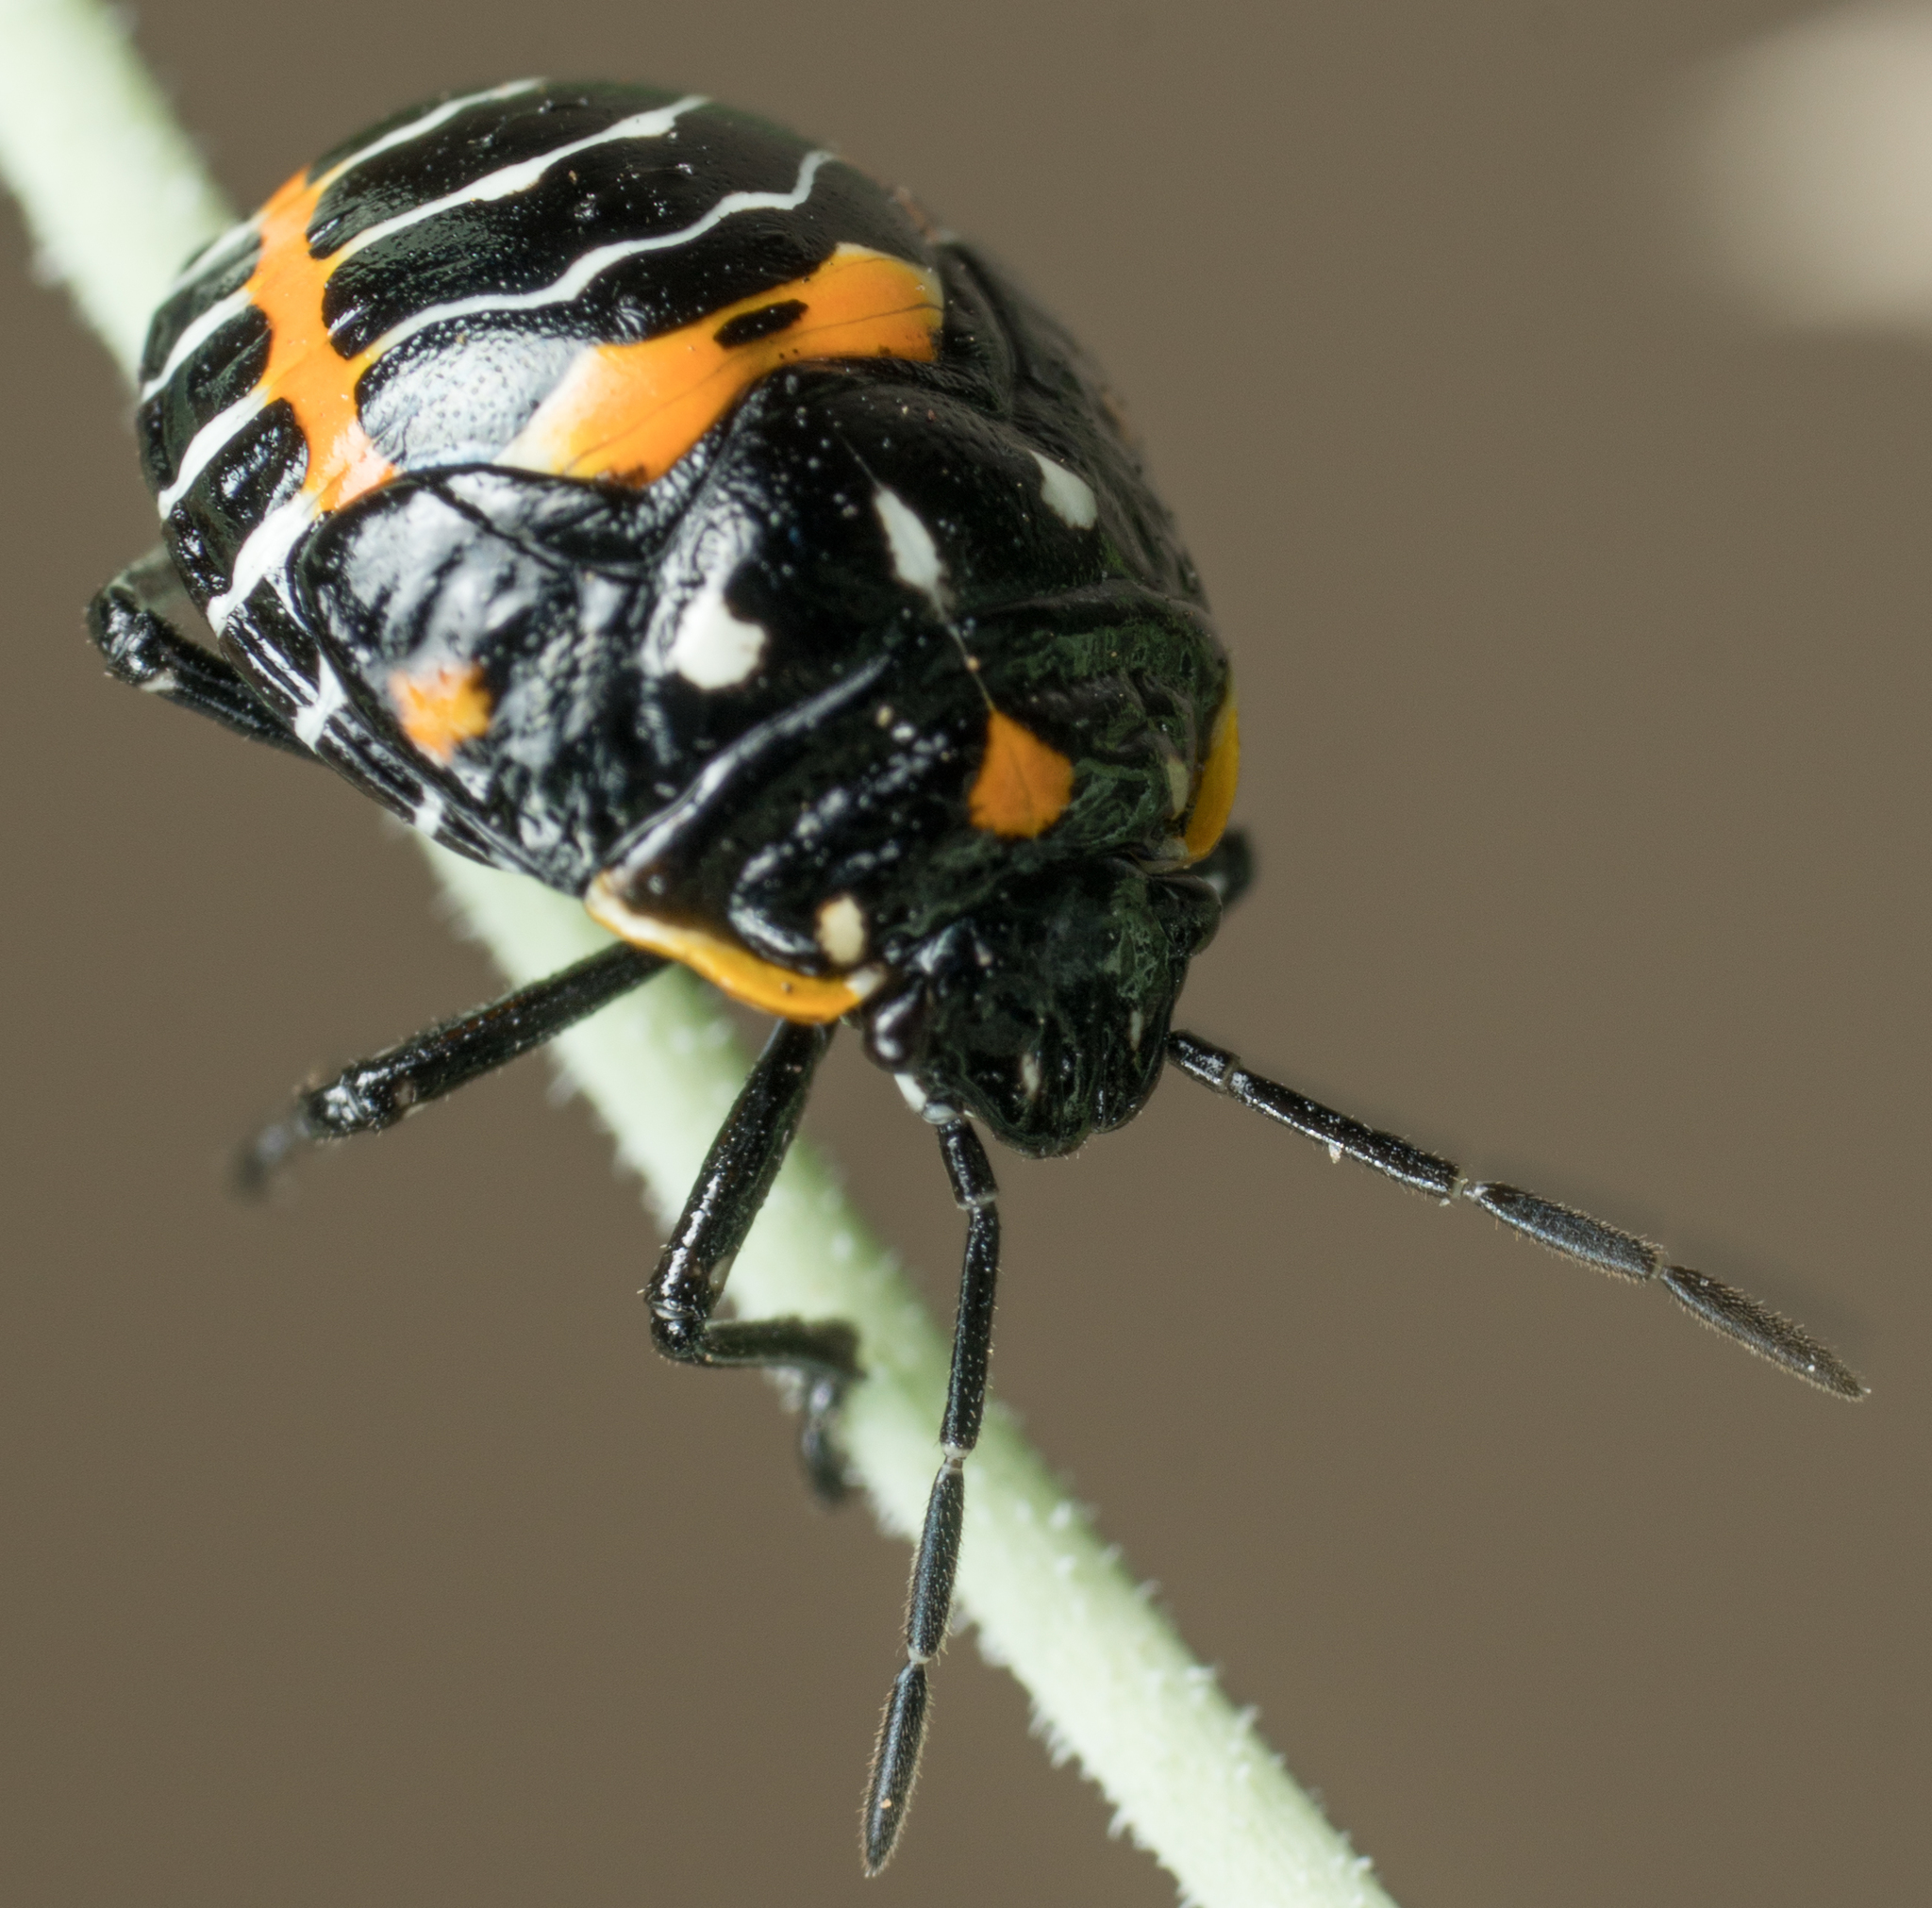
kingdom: Animalia
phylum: Arthropoda
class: Insecta
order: Hemiptera
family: Pentatomidae
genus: Murgantia
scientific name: Murgantia histrionica
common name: Harlequin bug
